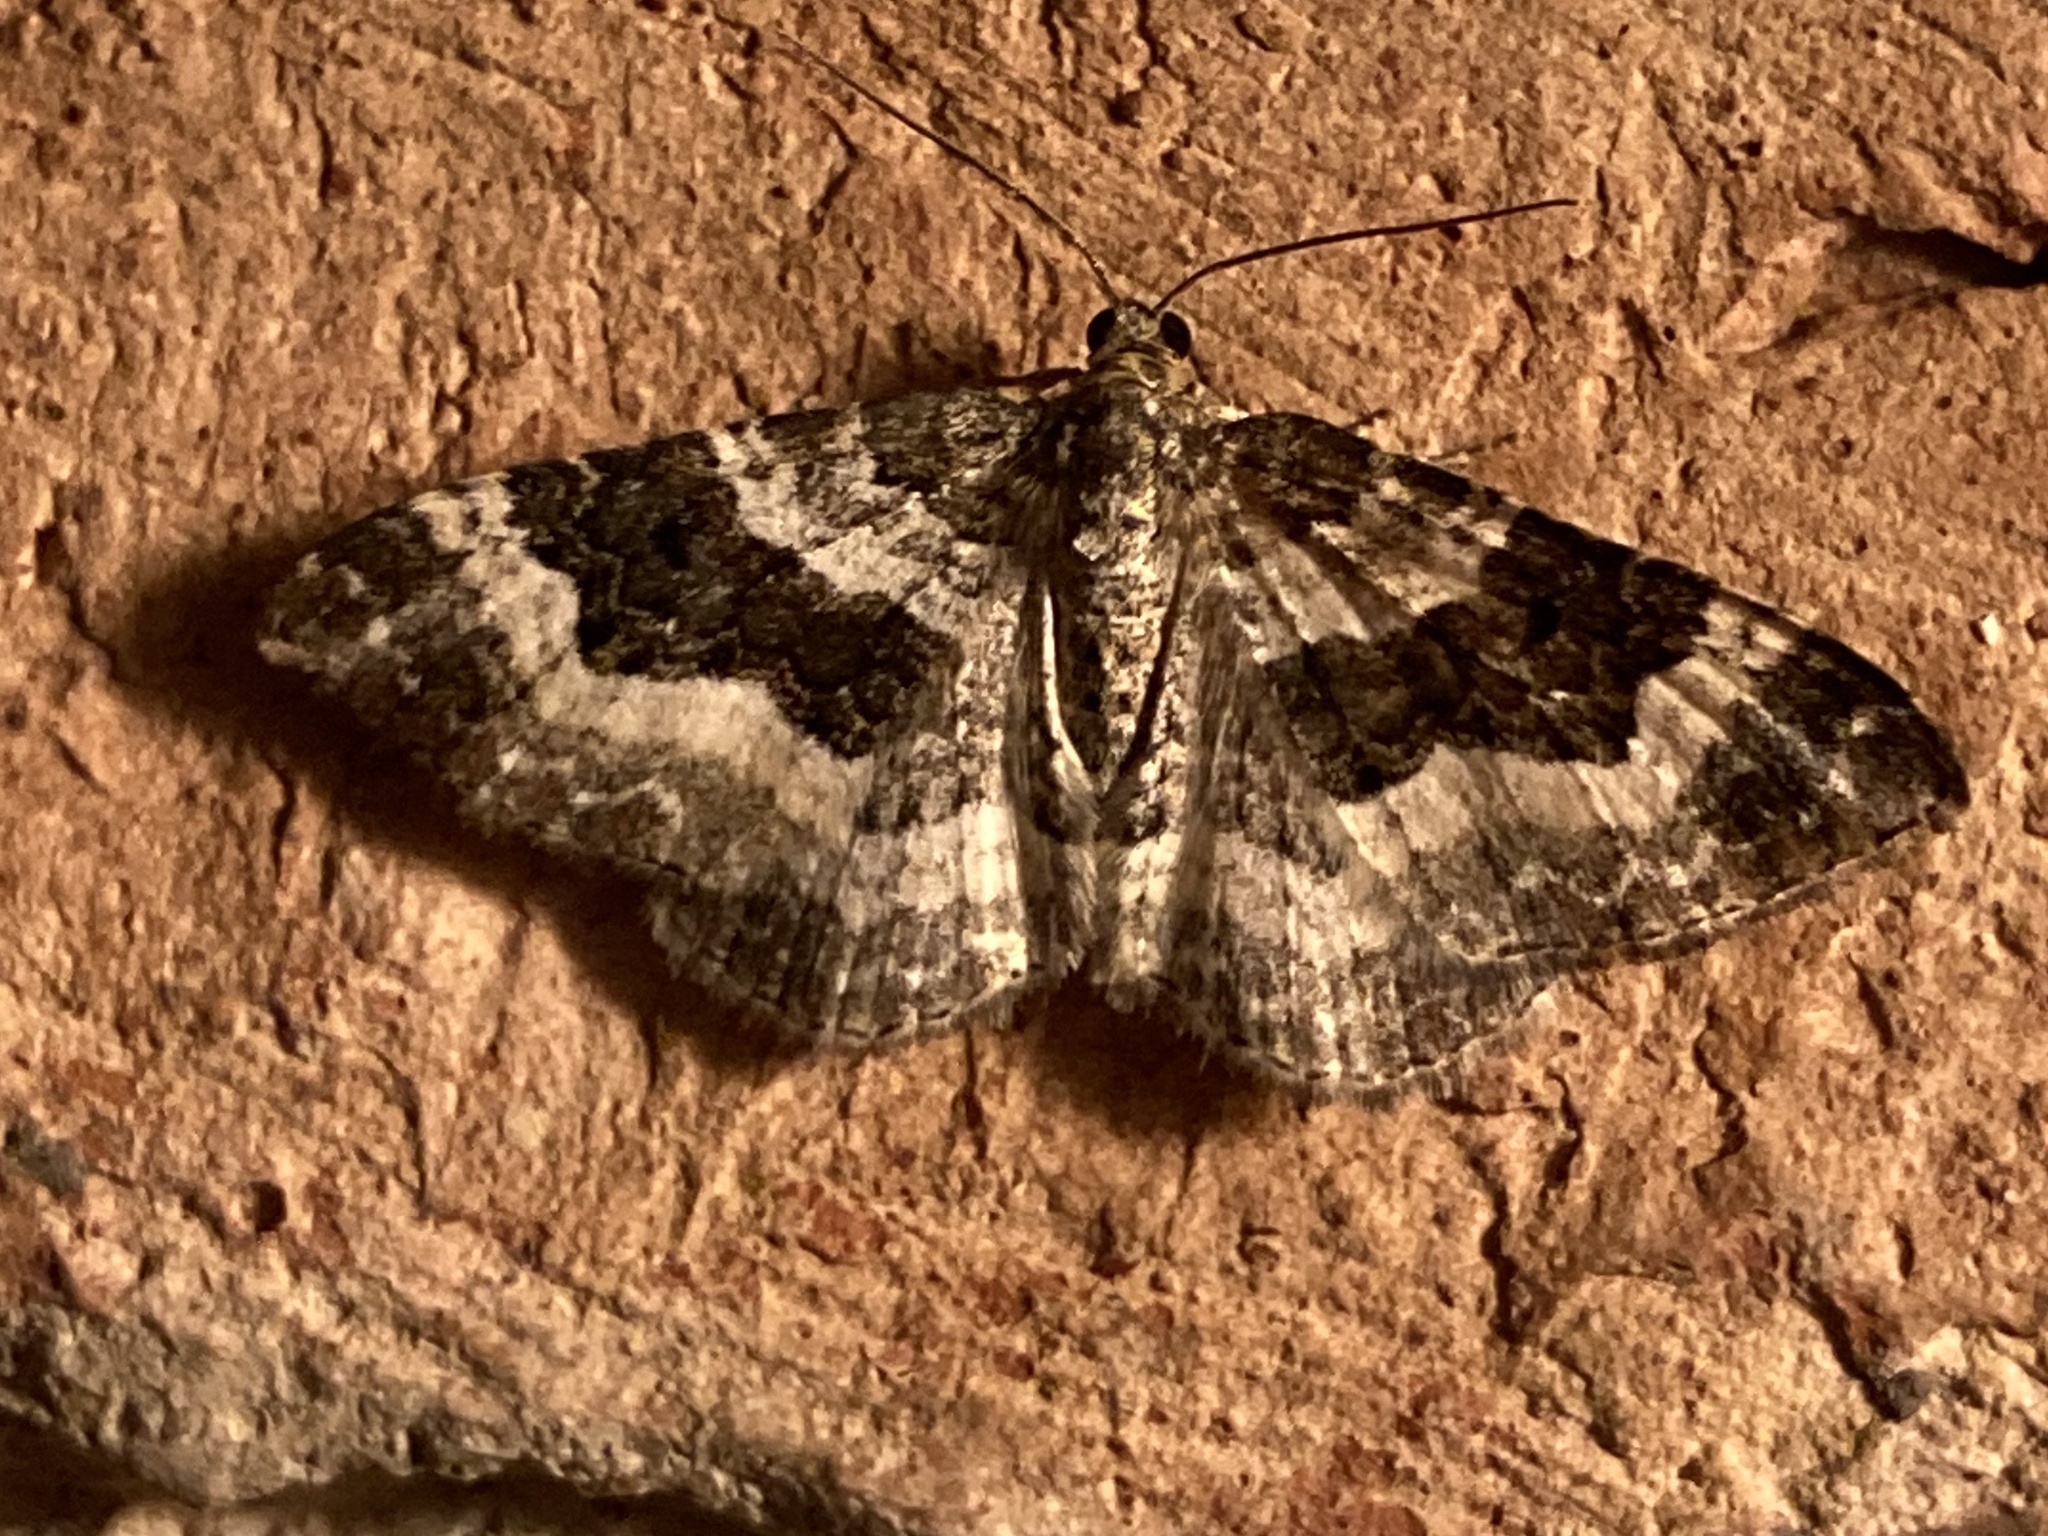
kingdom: Animalia
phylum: Arthropoda
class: Insecta
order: Lepidoptera
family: Geometridae
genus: Epirrhoe
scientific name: Epirrhoe alternata
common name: Common carpet
